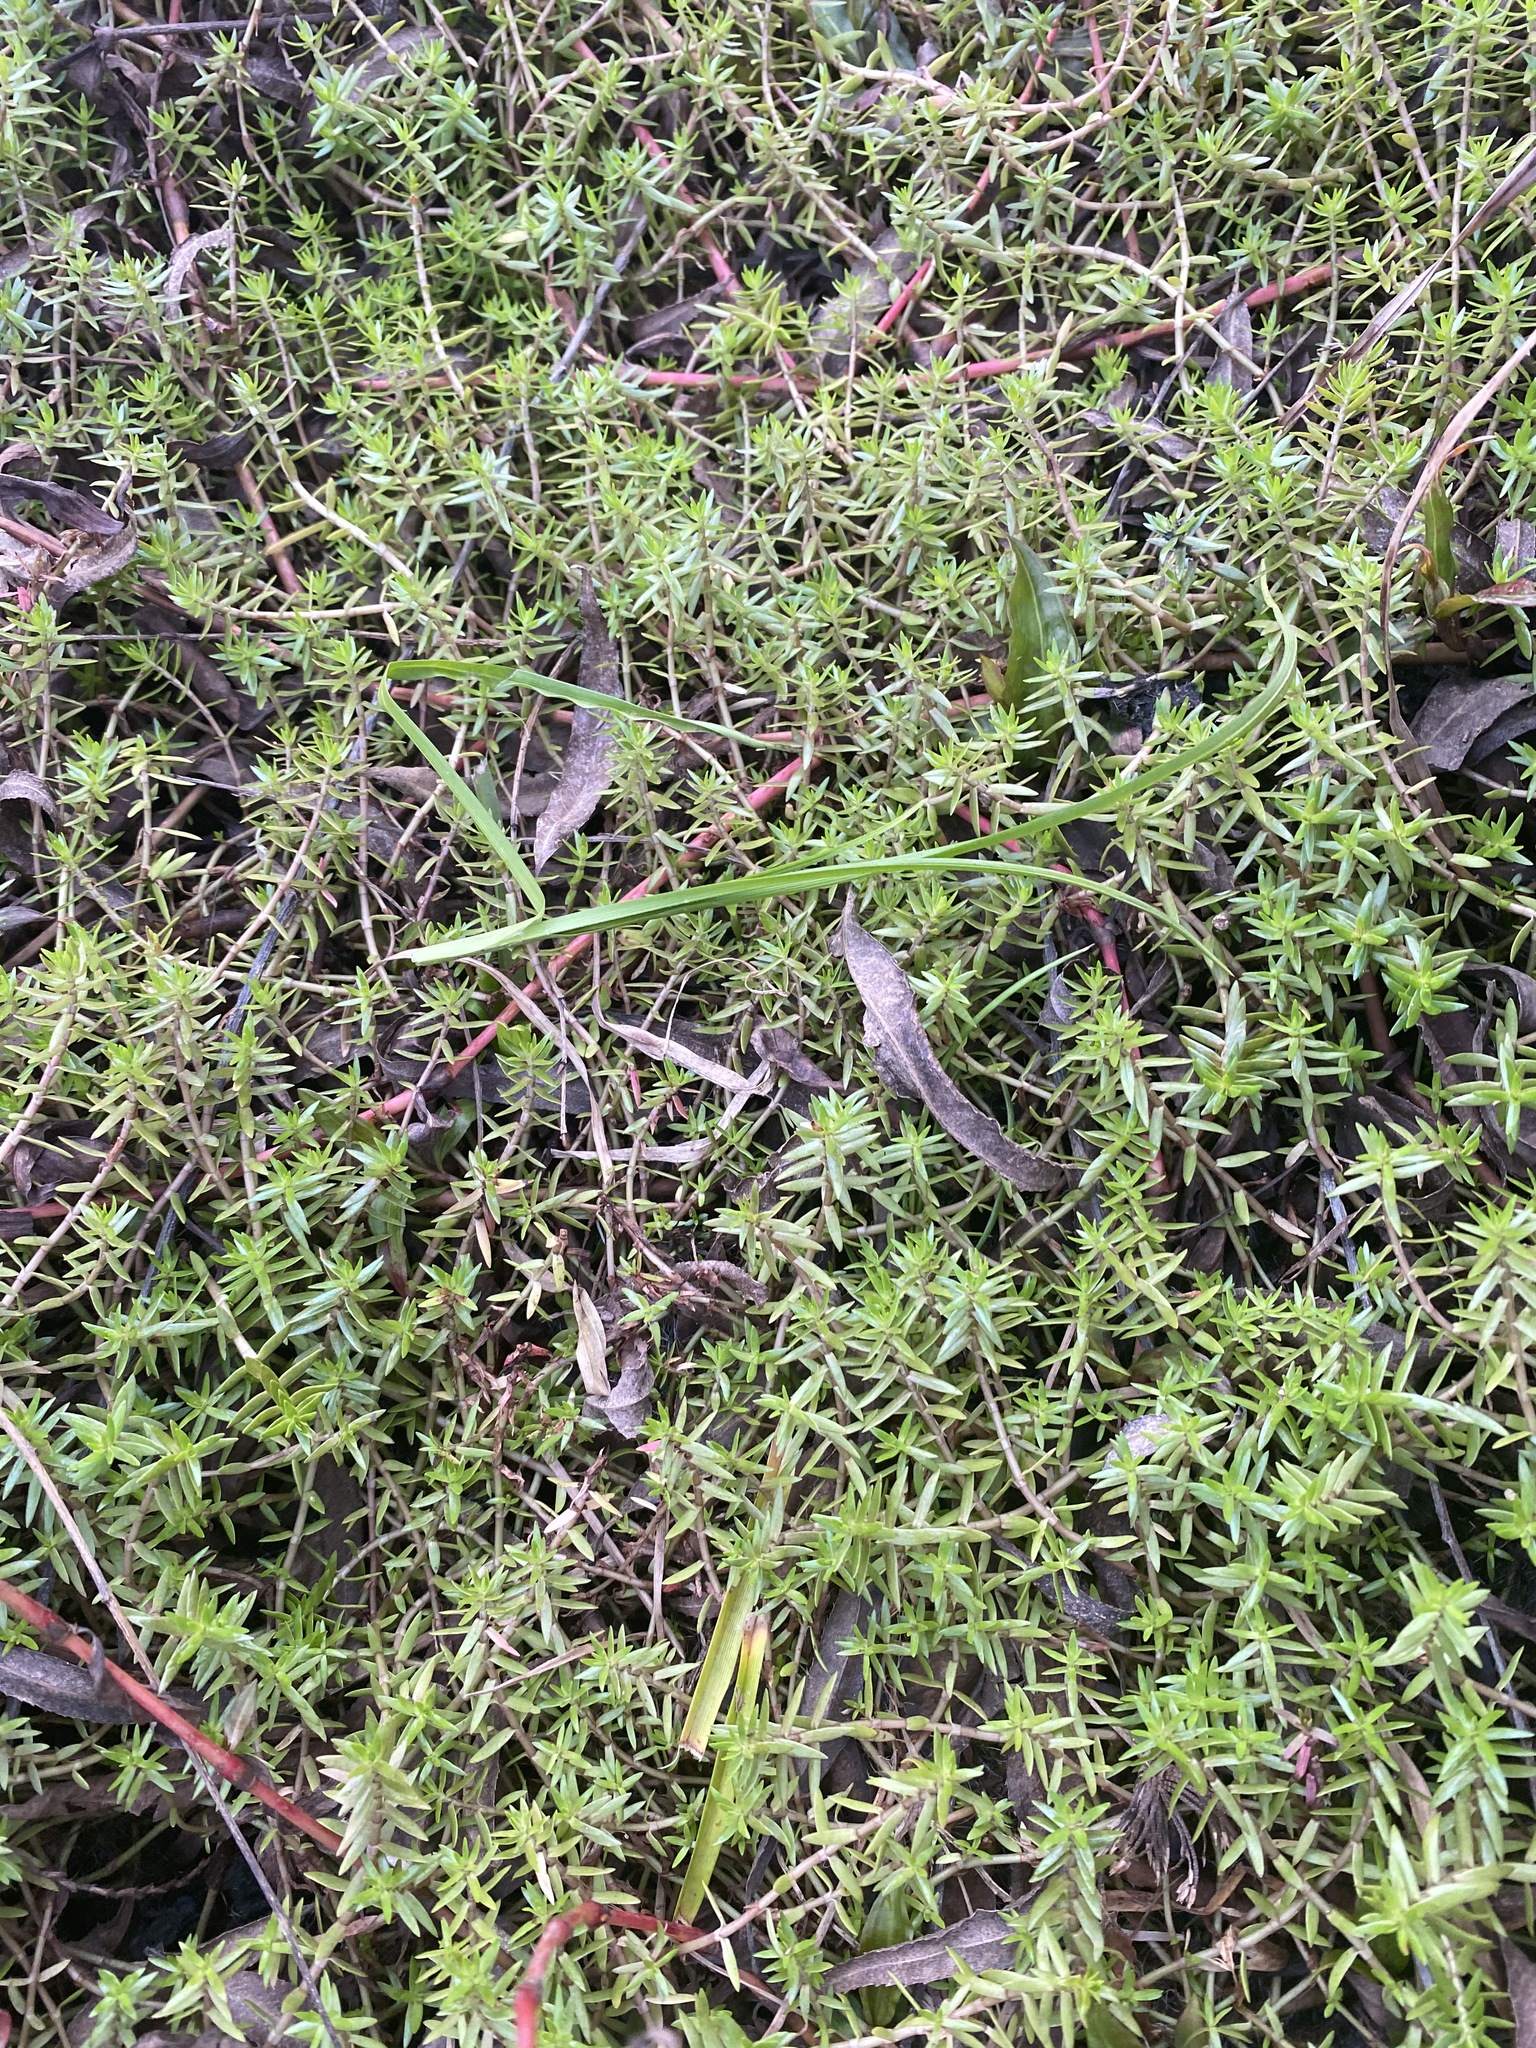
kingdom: Plantae
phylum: Tracheophyta
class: Magnoliopsida
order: Saxifragales
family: Crassulaceae
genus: Crassula
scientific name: Crassula helmsii
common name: New zealand pigmyweed
